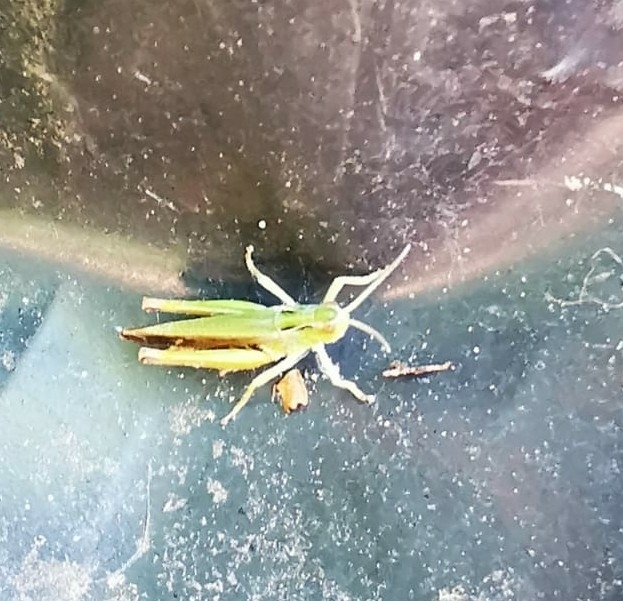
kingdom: Animalia
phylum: Arthropoda
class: Insecta
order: Orthoptera
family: Acrididae
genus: Omocestus
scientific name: Omocestus viridulus
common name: Common green grasshopper
